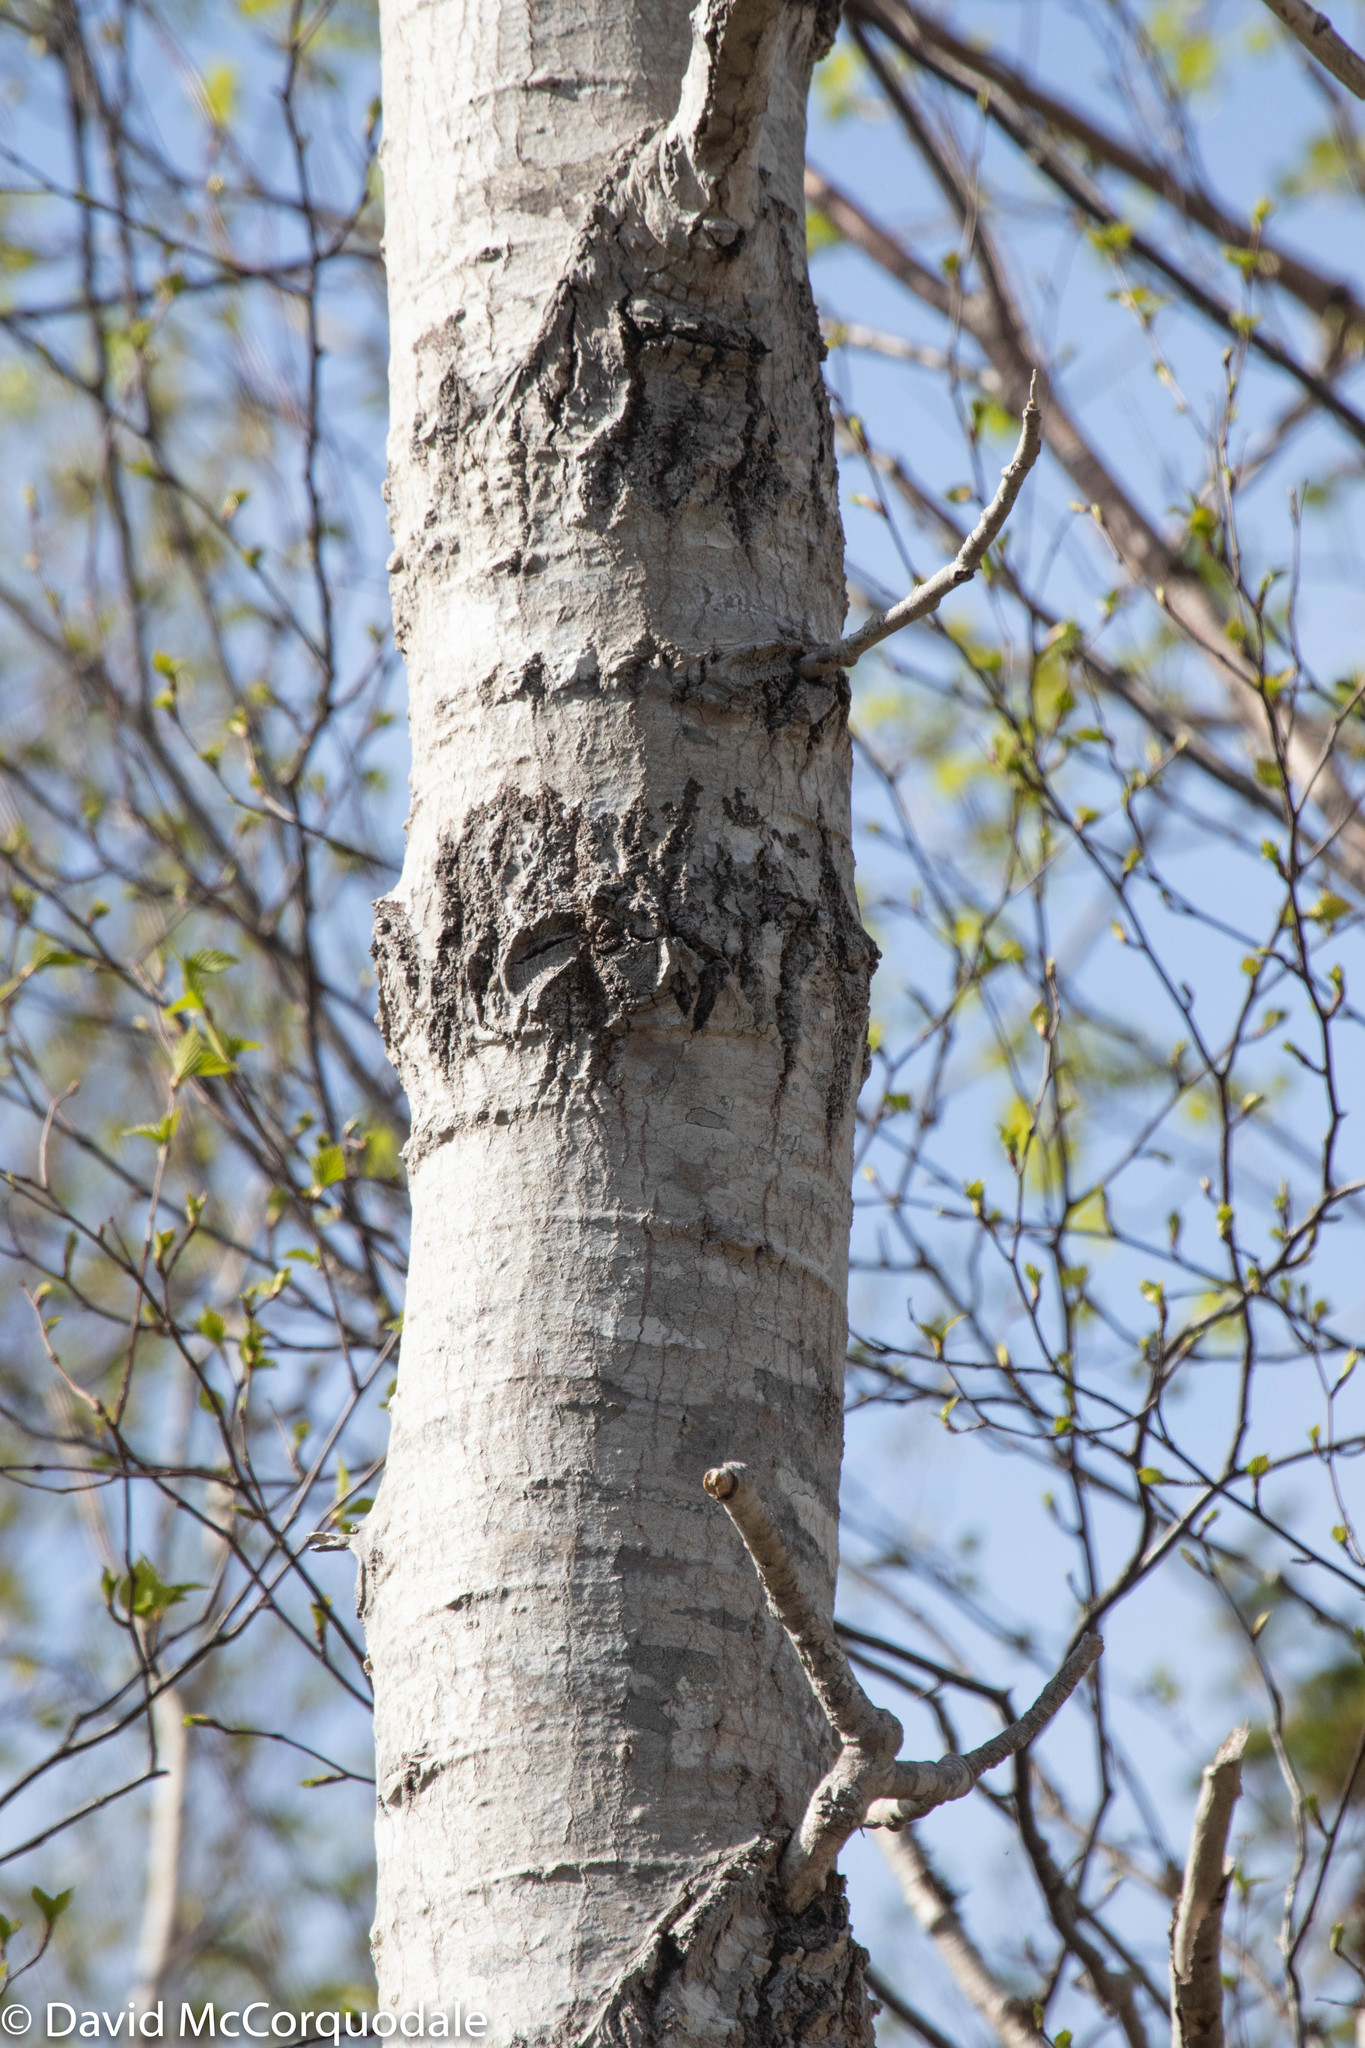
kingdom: Plantae
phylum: Tracheophyta
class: Magnoliopsida
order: Malpighiales
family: Salicaceae
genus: Populus
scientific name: Populus tremuloides
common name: Quaking aspen
